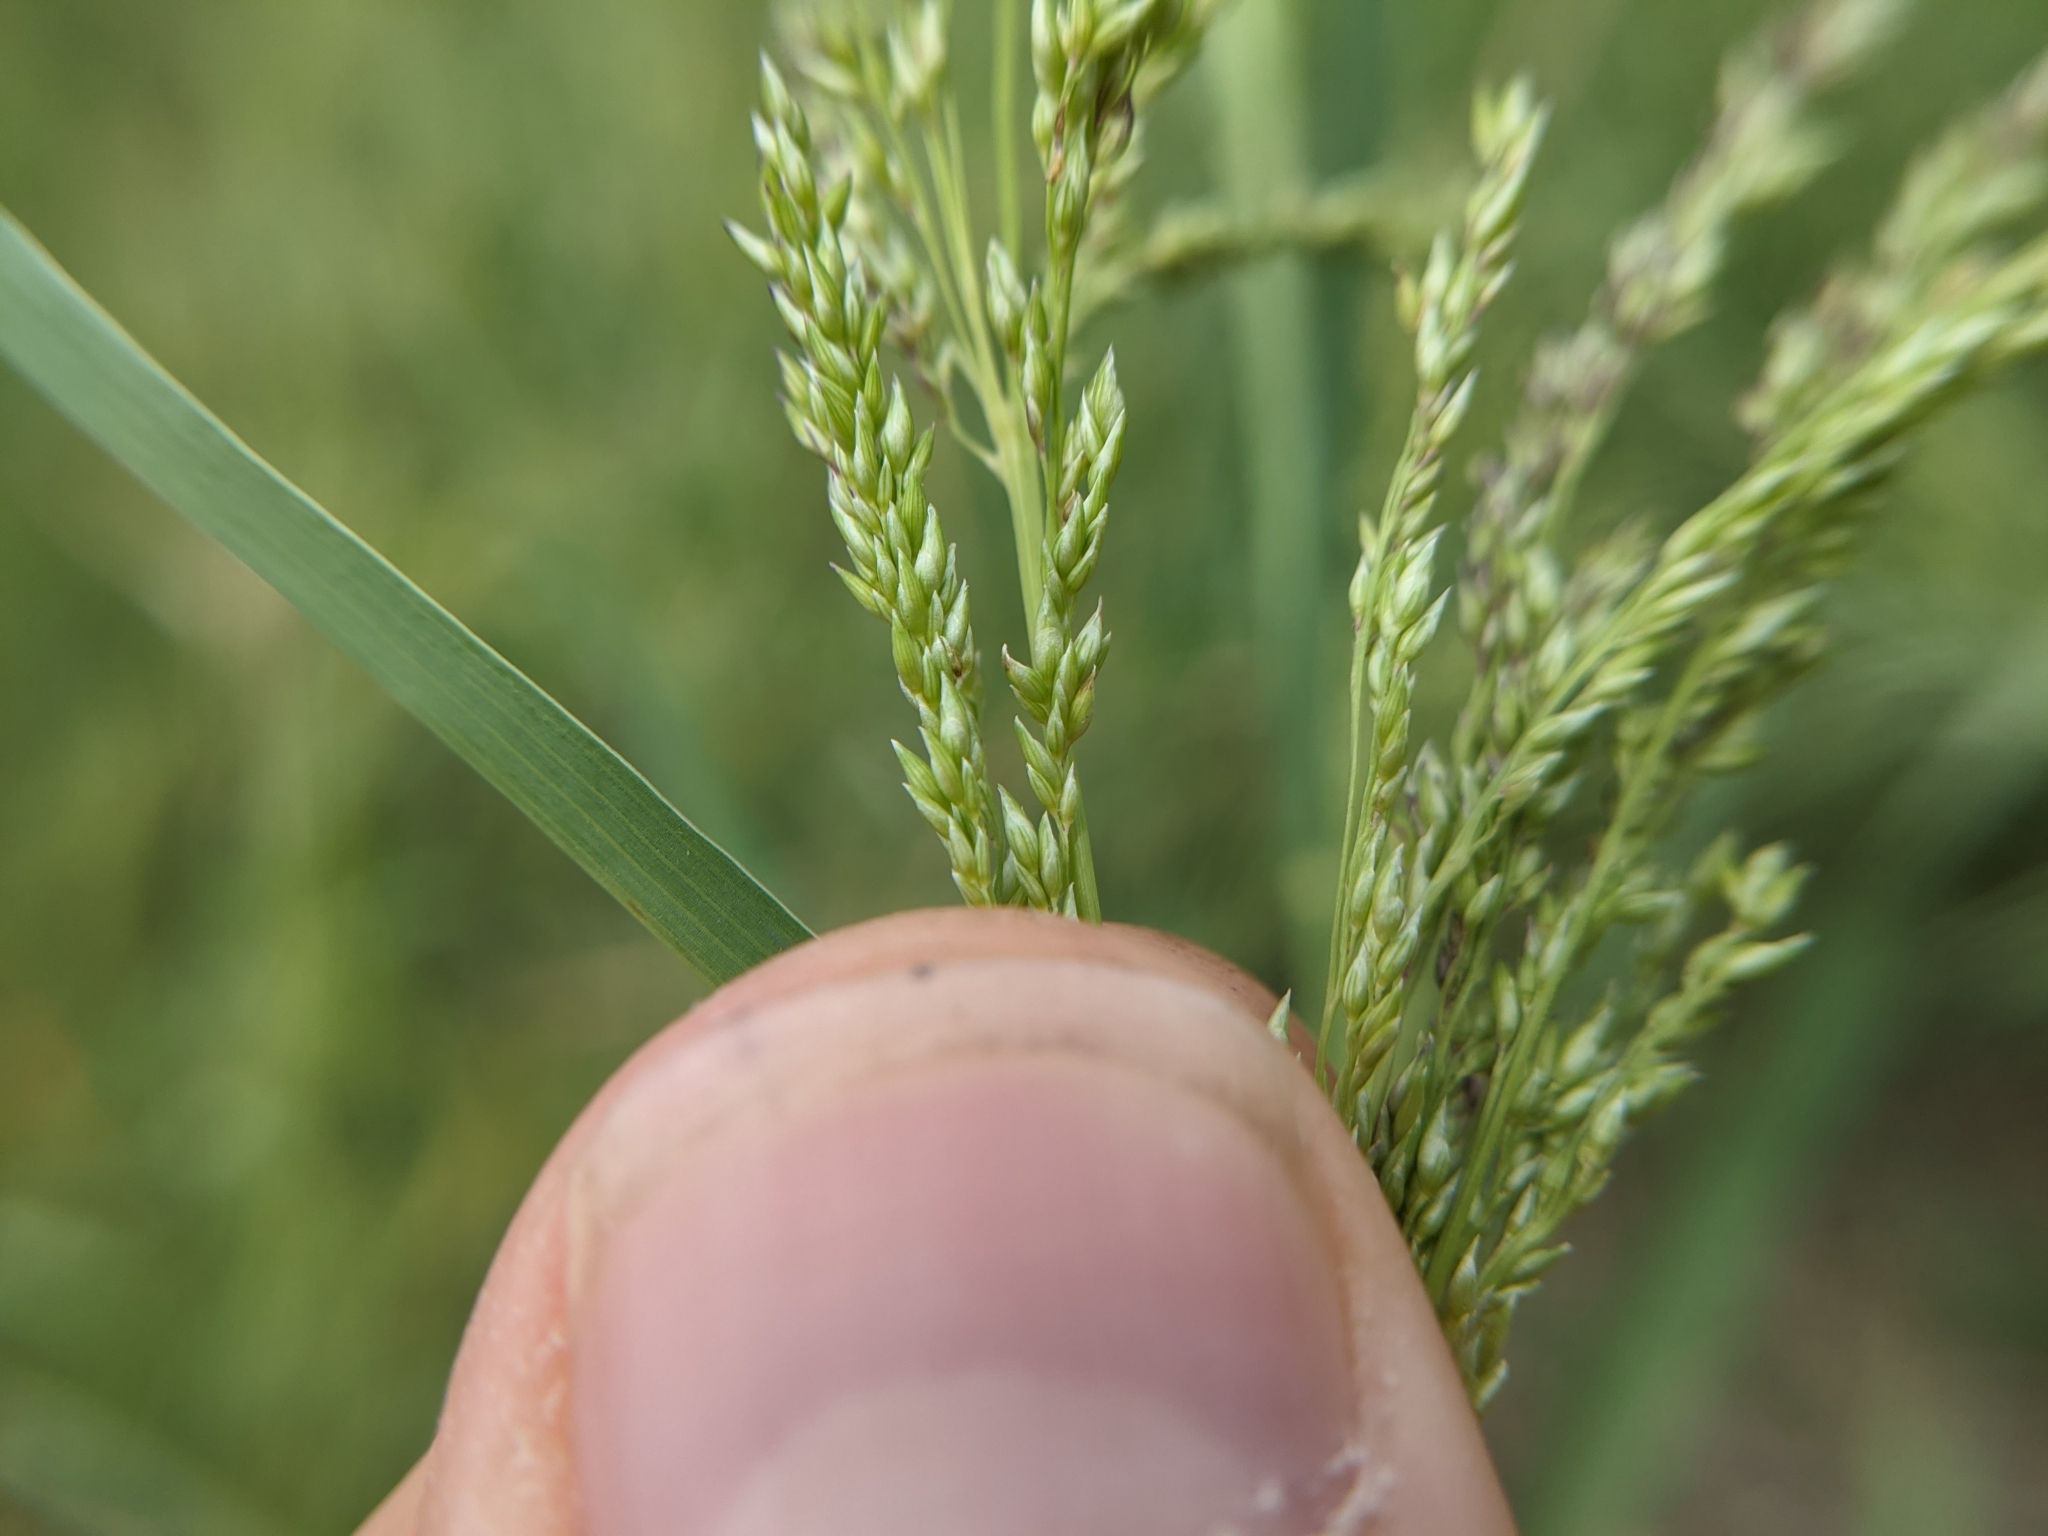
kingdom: Plantae
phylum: Tracheophyta
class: Liliopsida
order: Poales
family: Poaceae
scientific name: Poaceae
